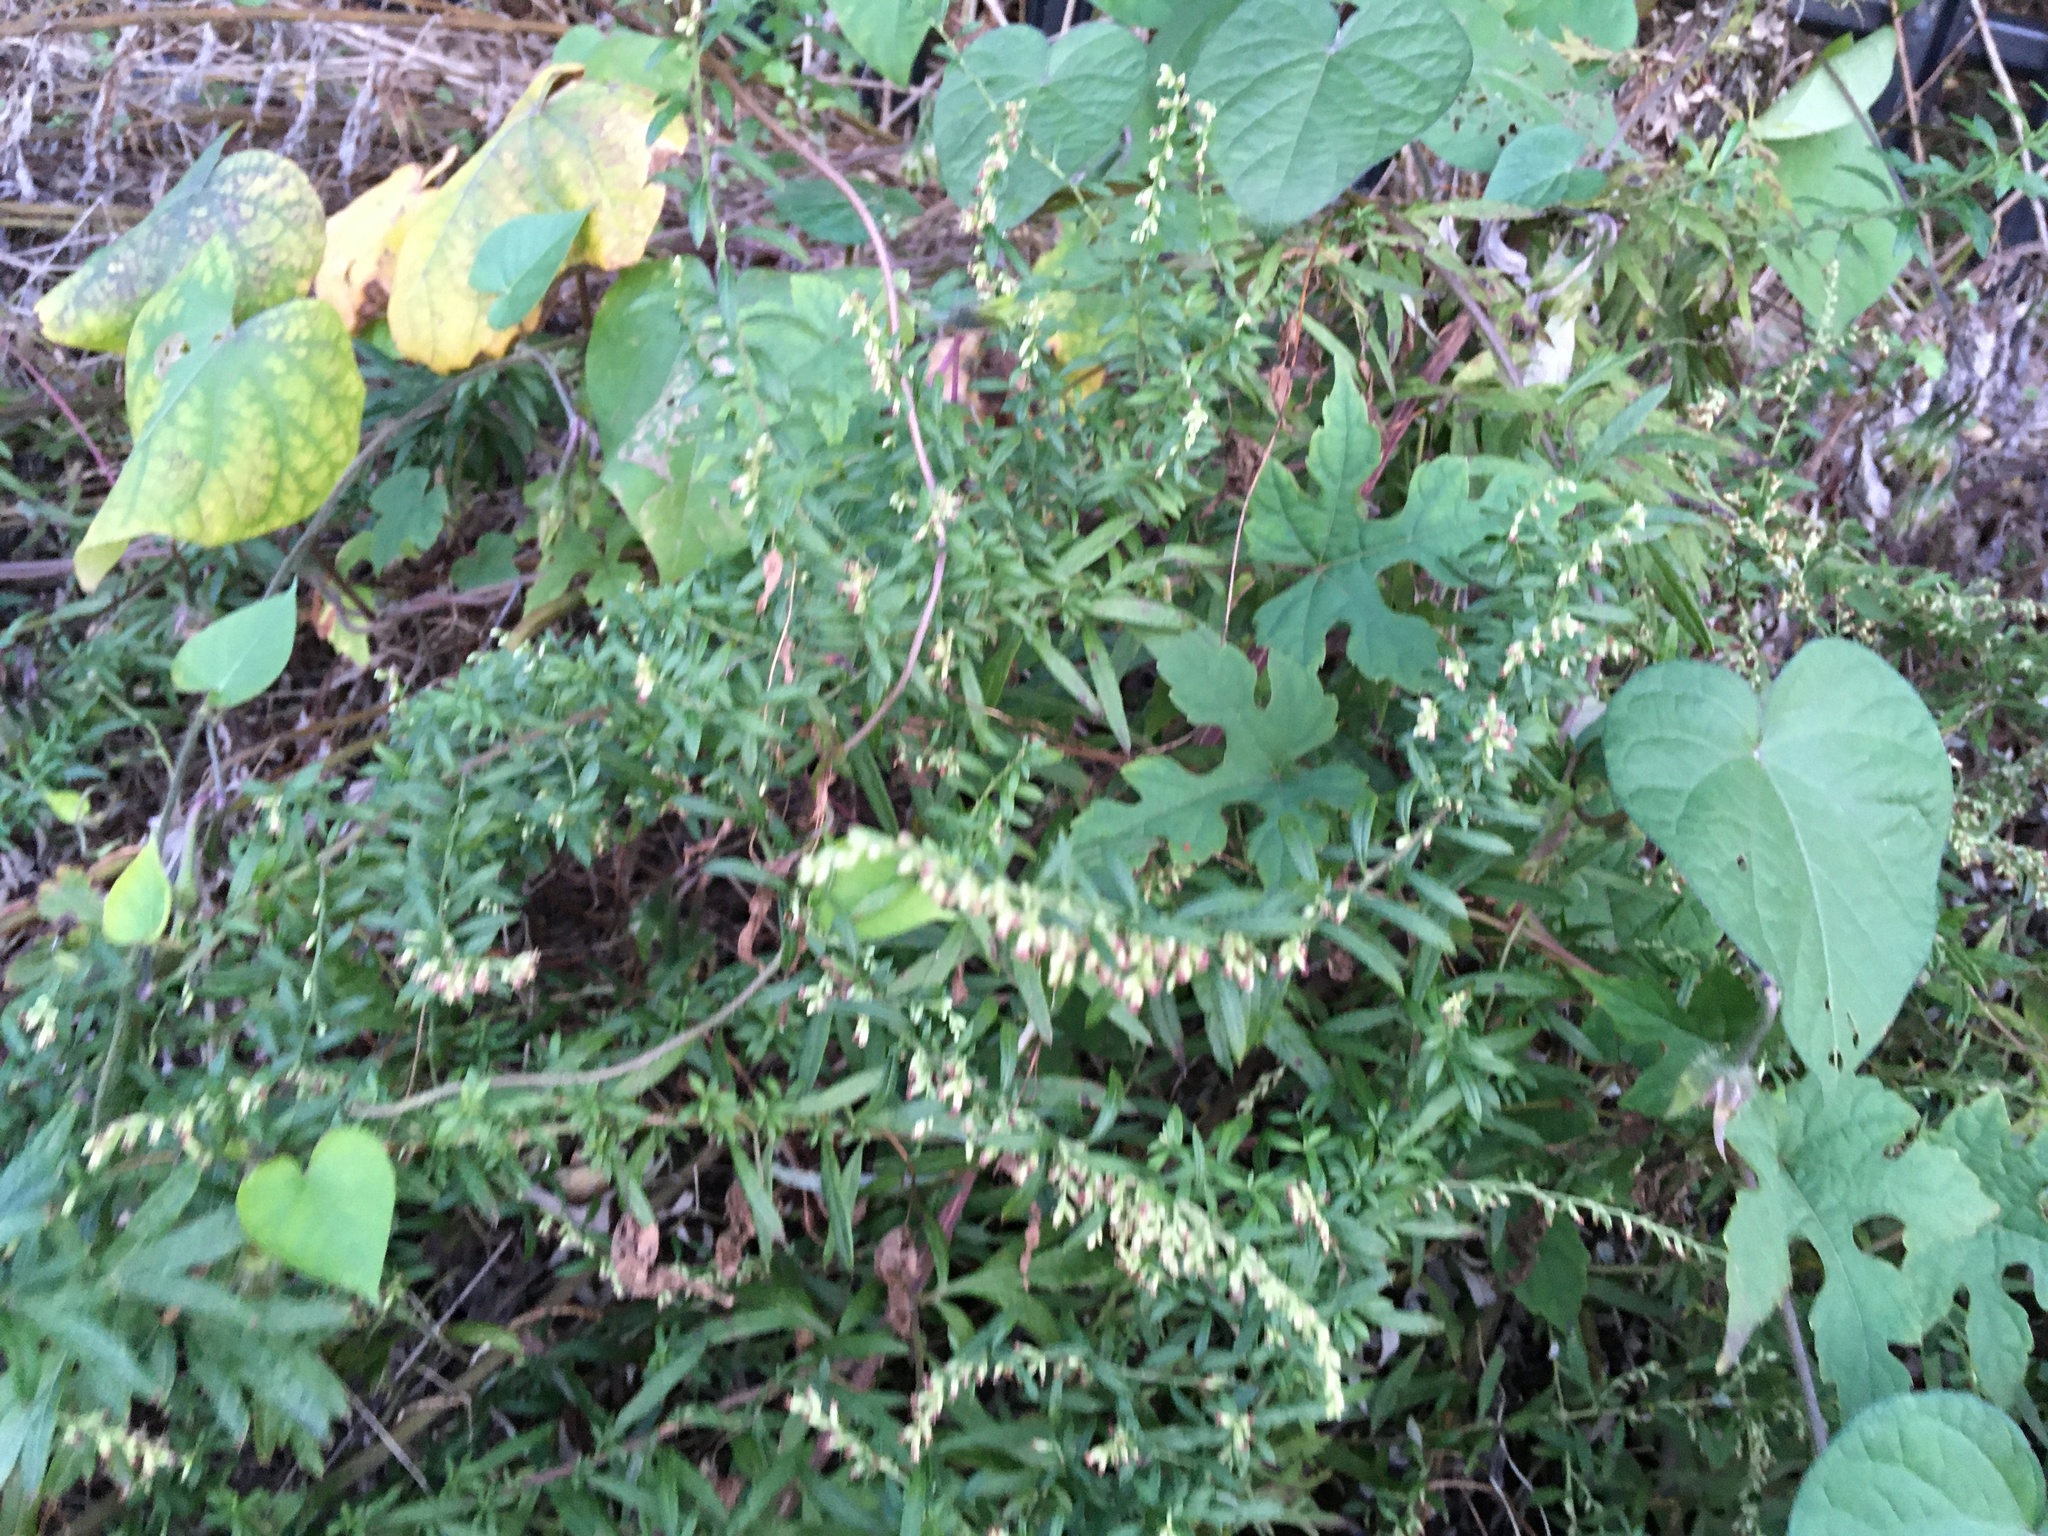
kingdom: Plantae
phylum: Tracheophyta
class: Magnoliopsida
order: Asterales
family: Asteraceae
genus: Artemisia
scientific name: Artemisia vulgaris
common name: Mugwort
